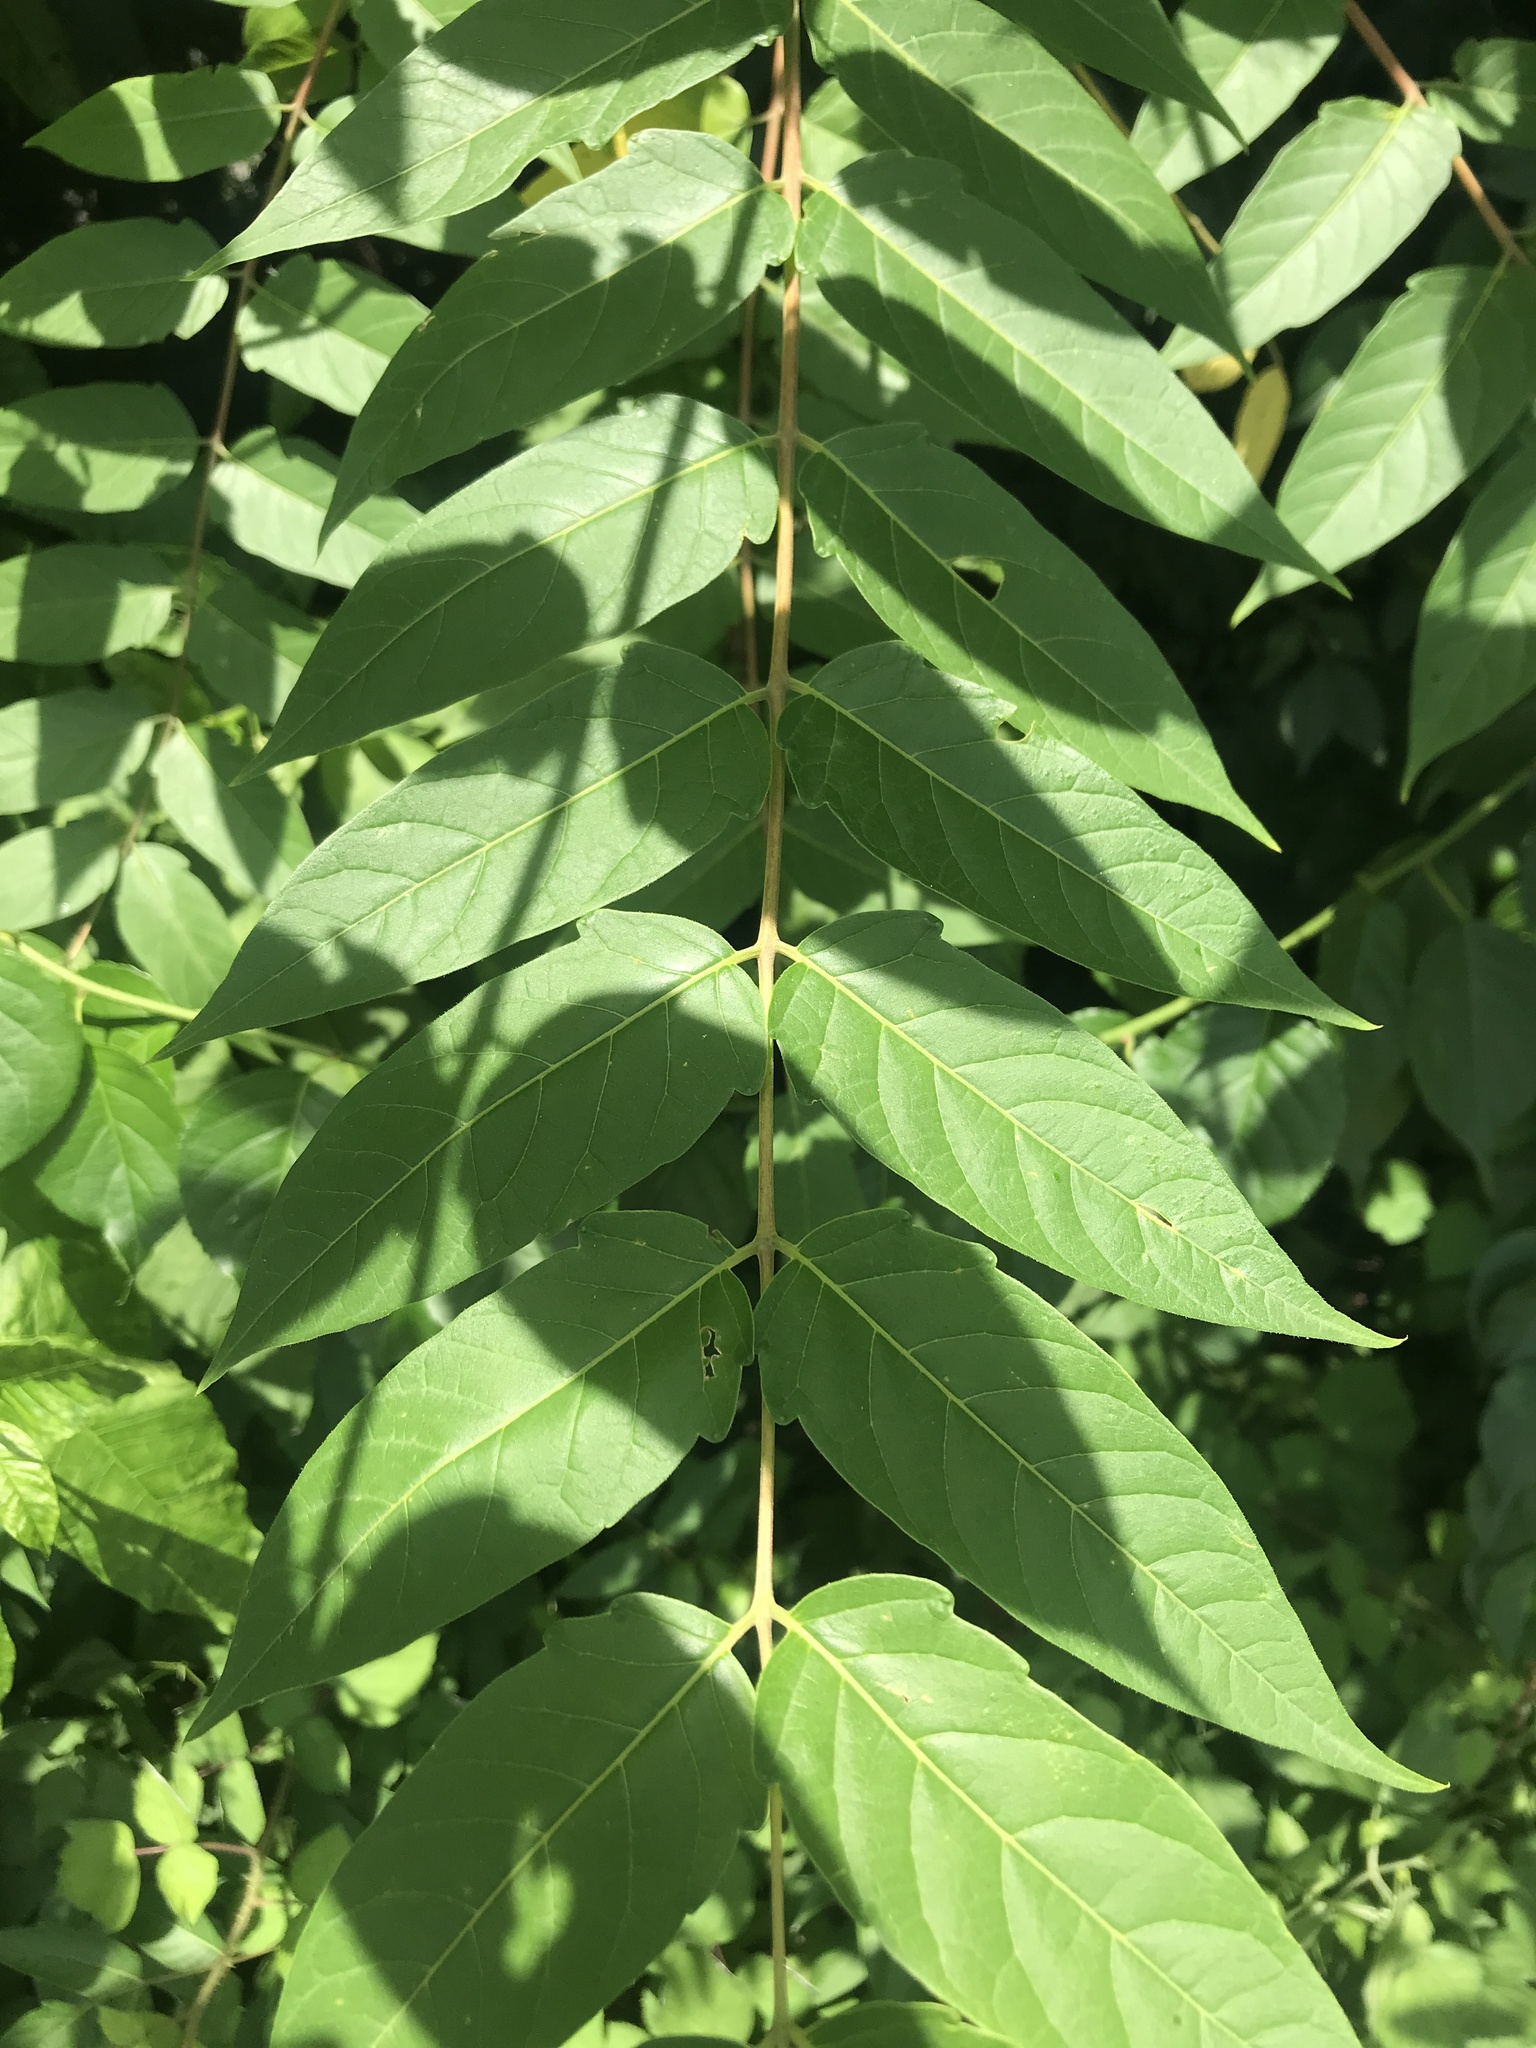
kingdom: Plantae
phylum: Tracheophyta
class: Magnoliopsida
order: Sapindales
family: Simaroubaceae
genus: Ailanthus
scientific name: Ailanthus altissima
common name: Tree-of-heaven
